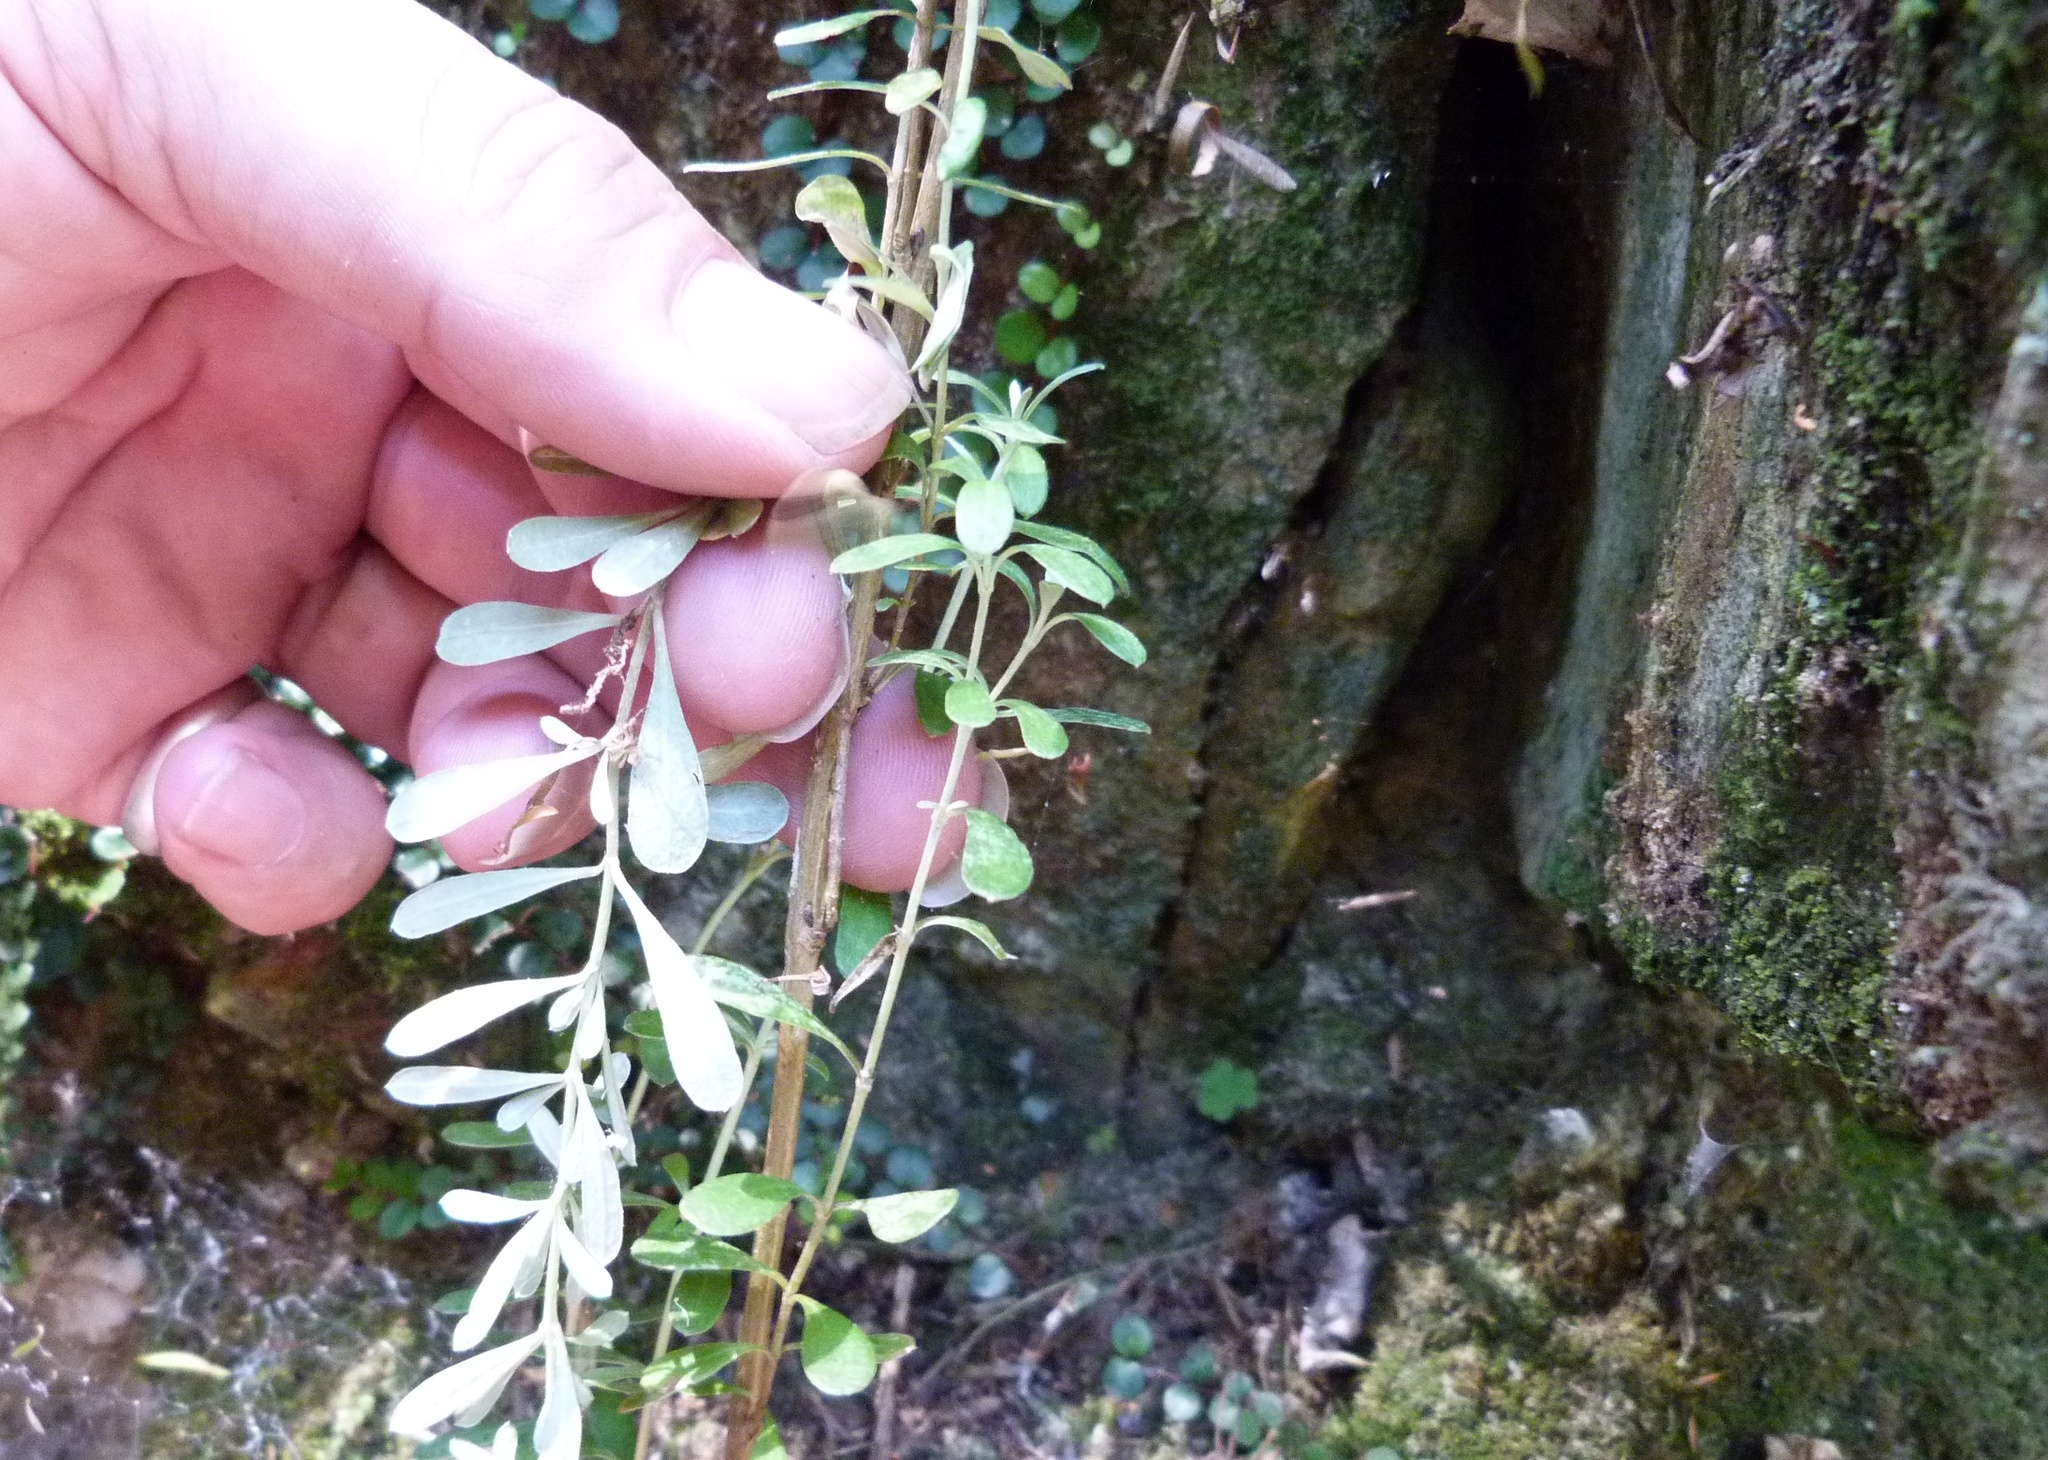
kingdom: Plantae
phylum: Tracheophyta
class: Magnoliopsida
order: Asterales
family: Asteraceae
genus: Olearia
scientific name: Olearia solandri
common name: Coastal daisybush
